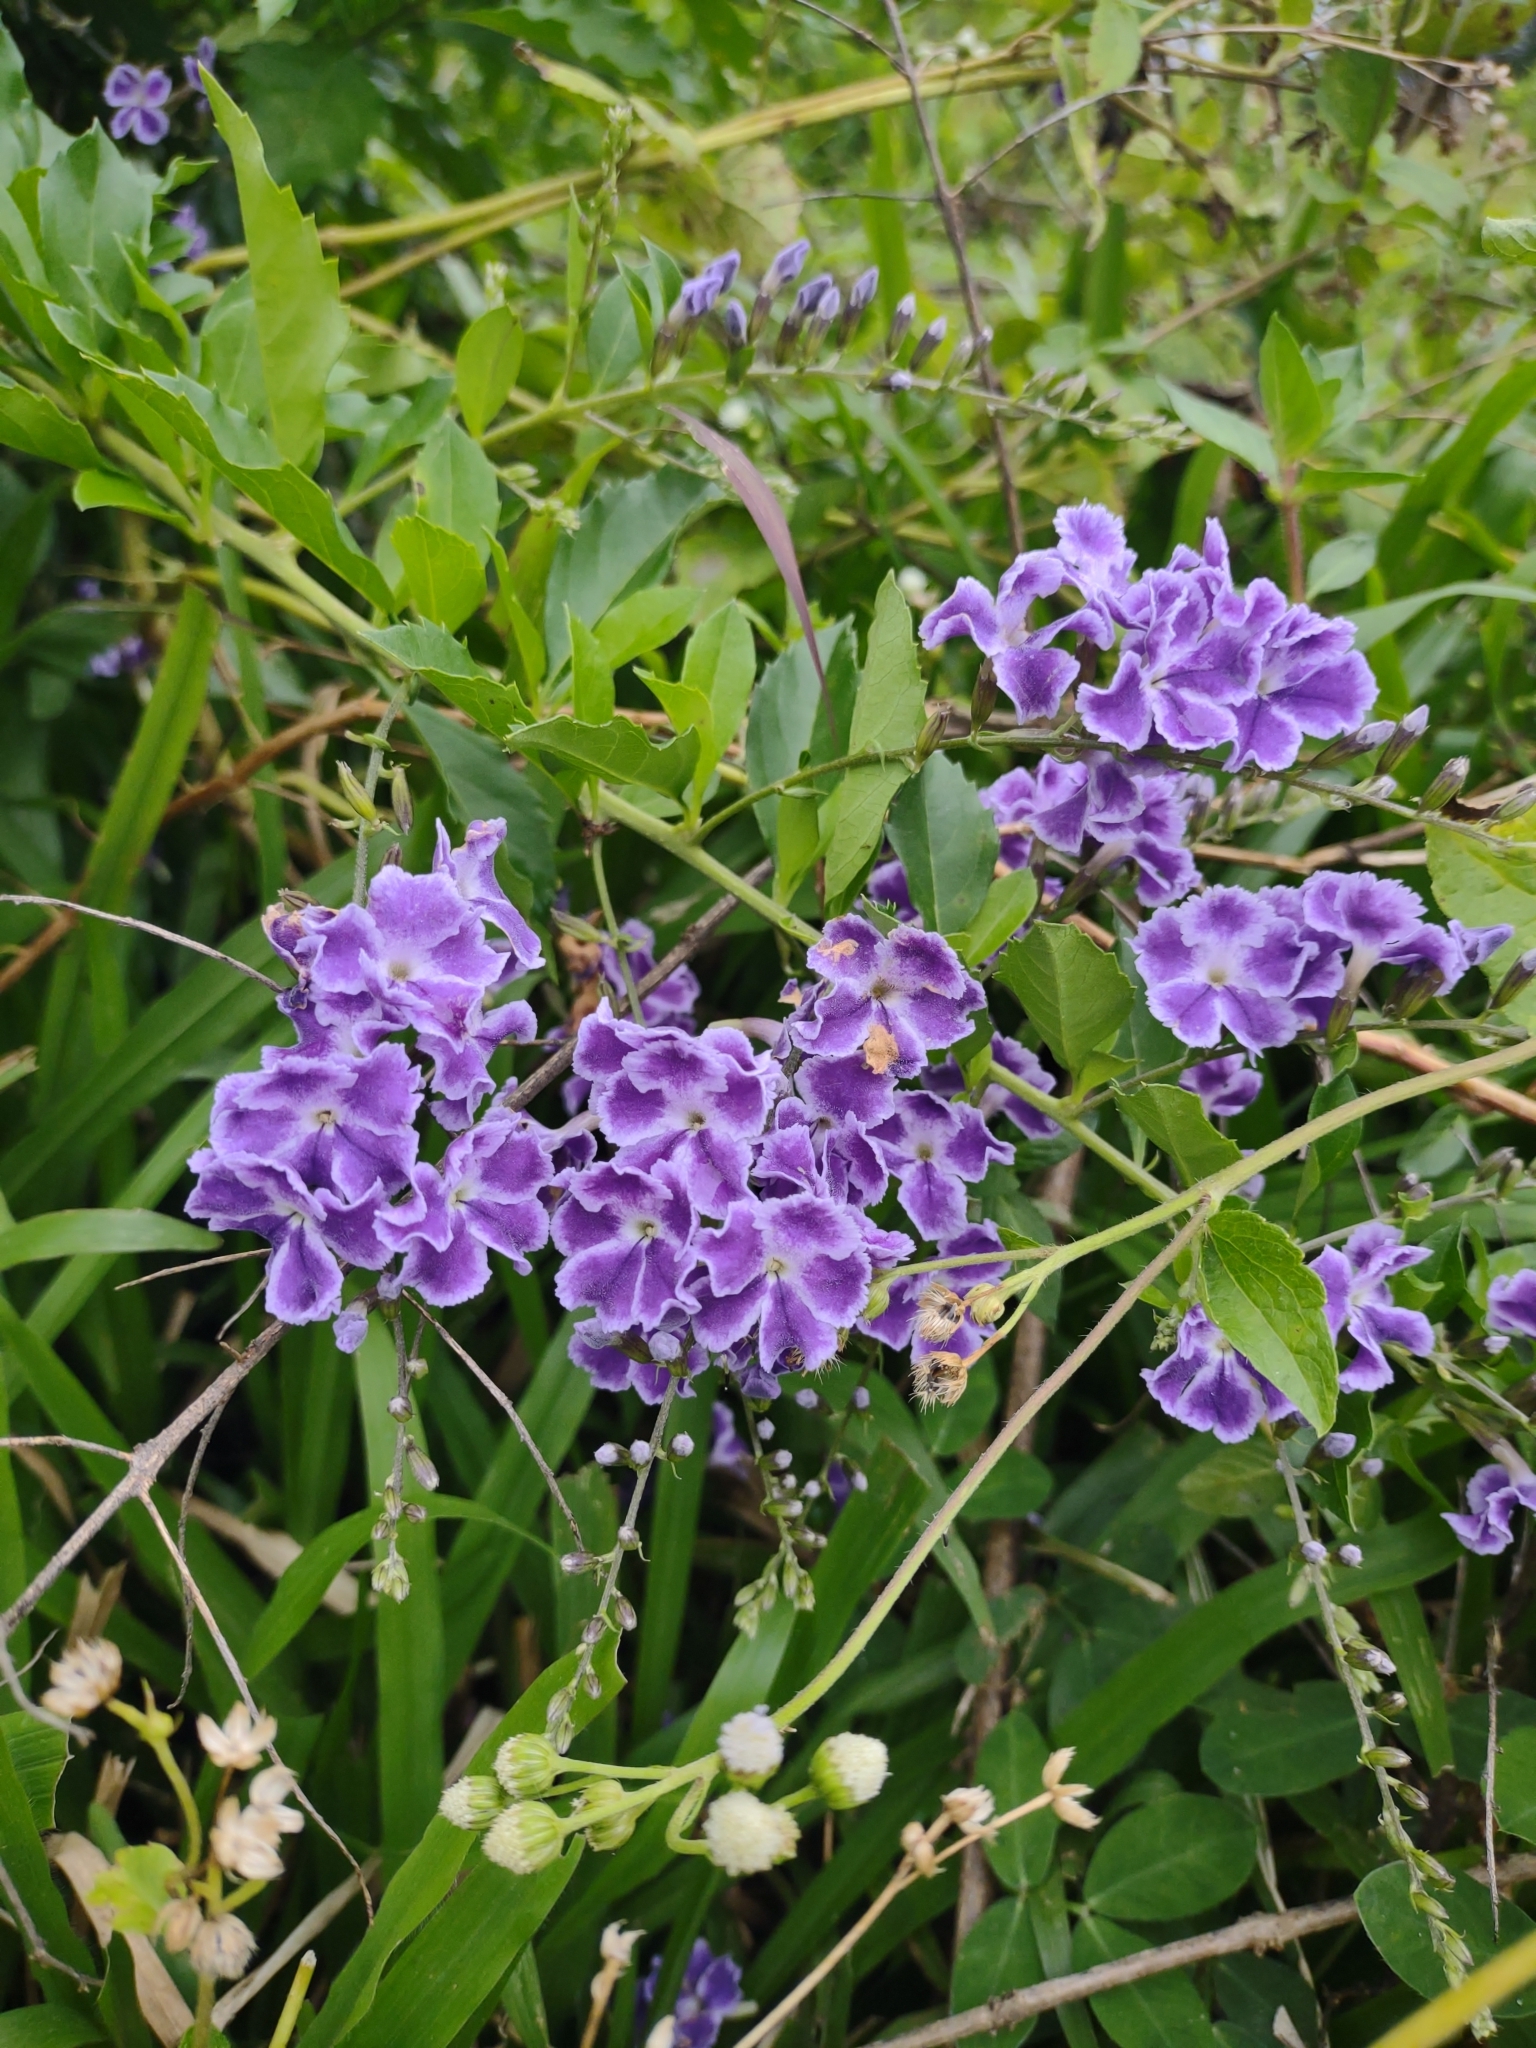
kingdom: Plantae
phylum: Tracheophyta
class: Magnoliopsida
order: Lamiales
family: Verbenaceae
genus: Duranta
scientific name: Duranta erecta
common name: Golden dewdrops
